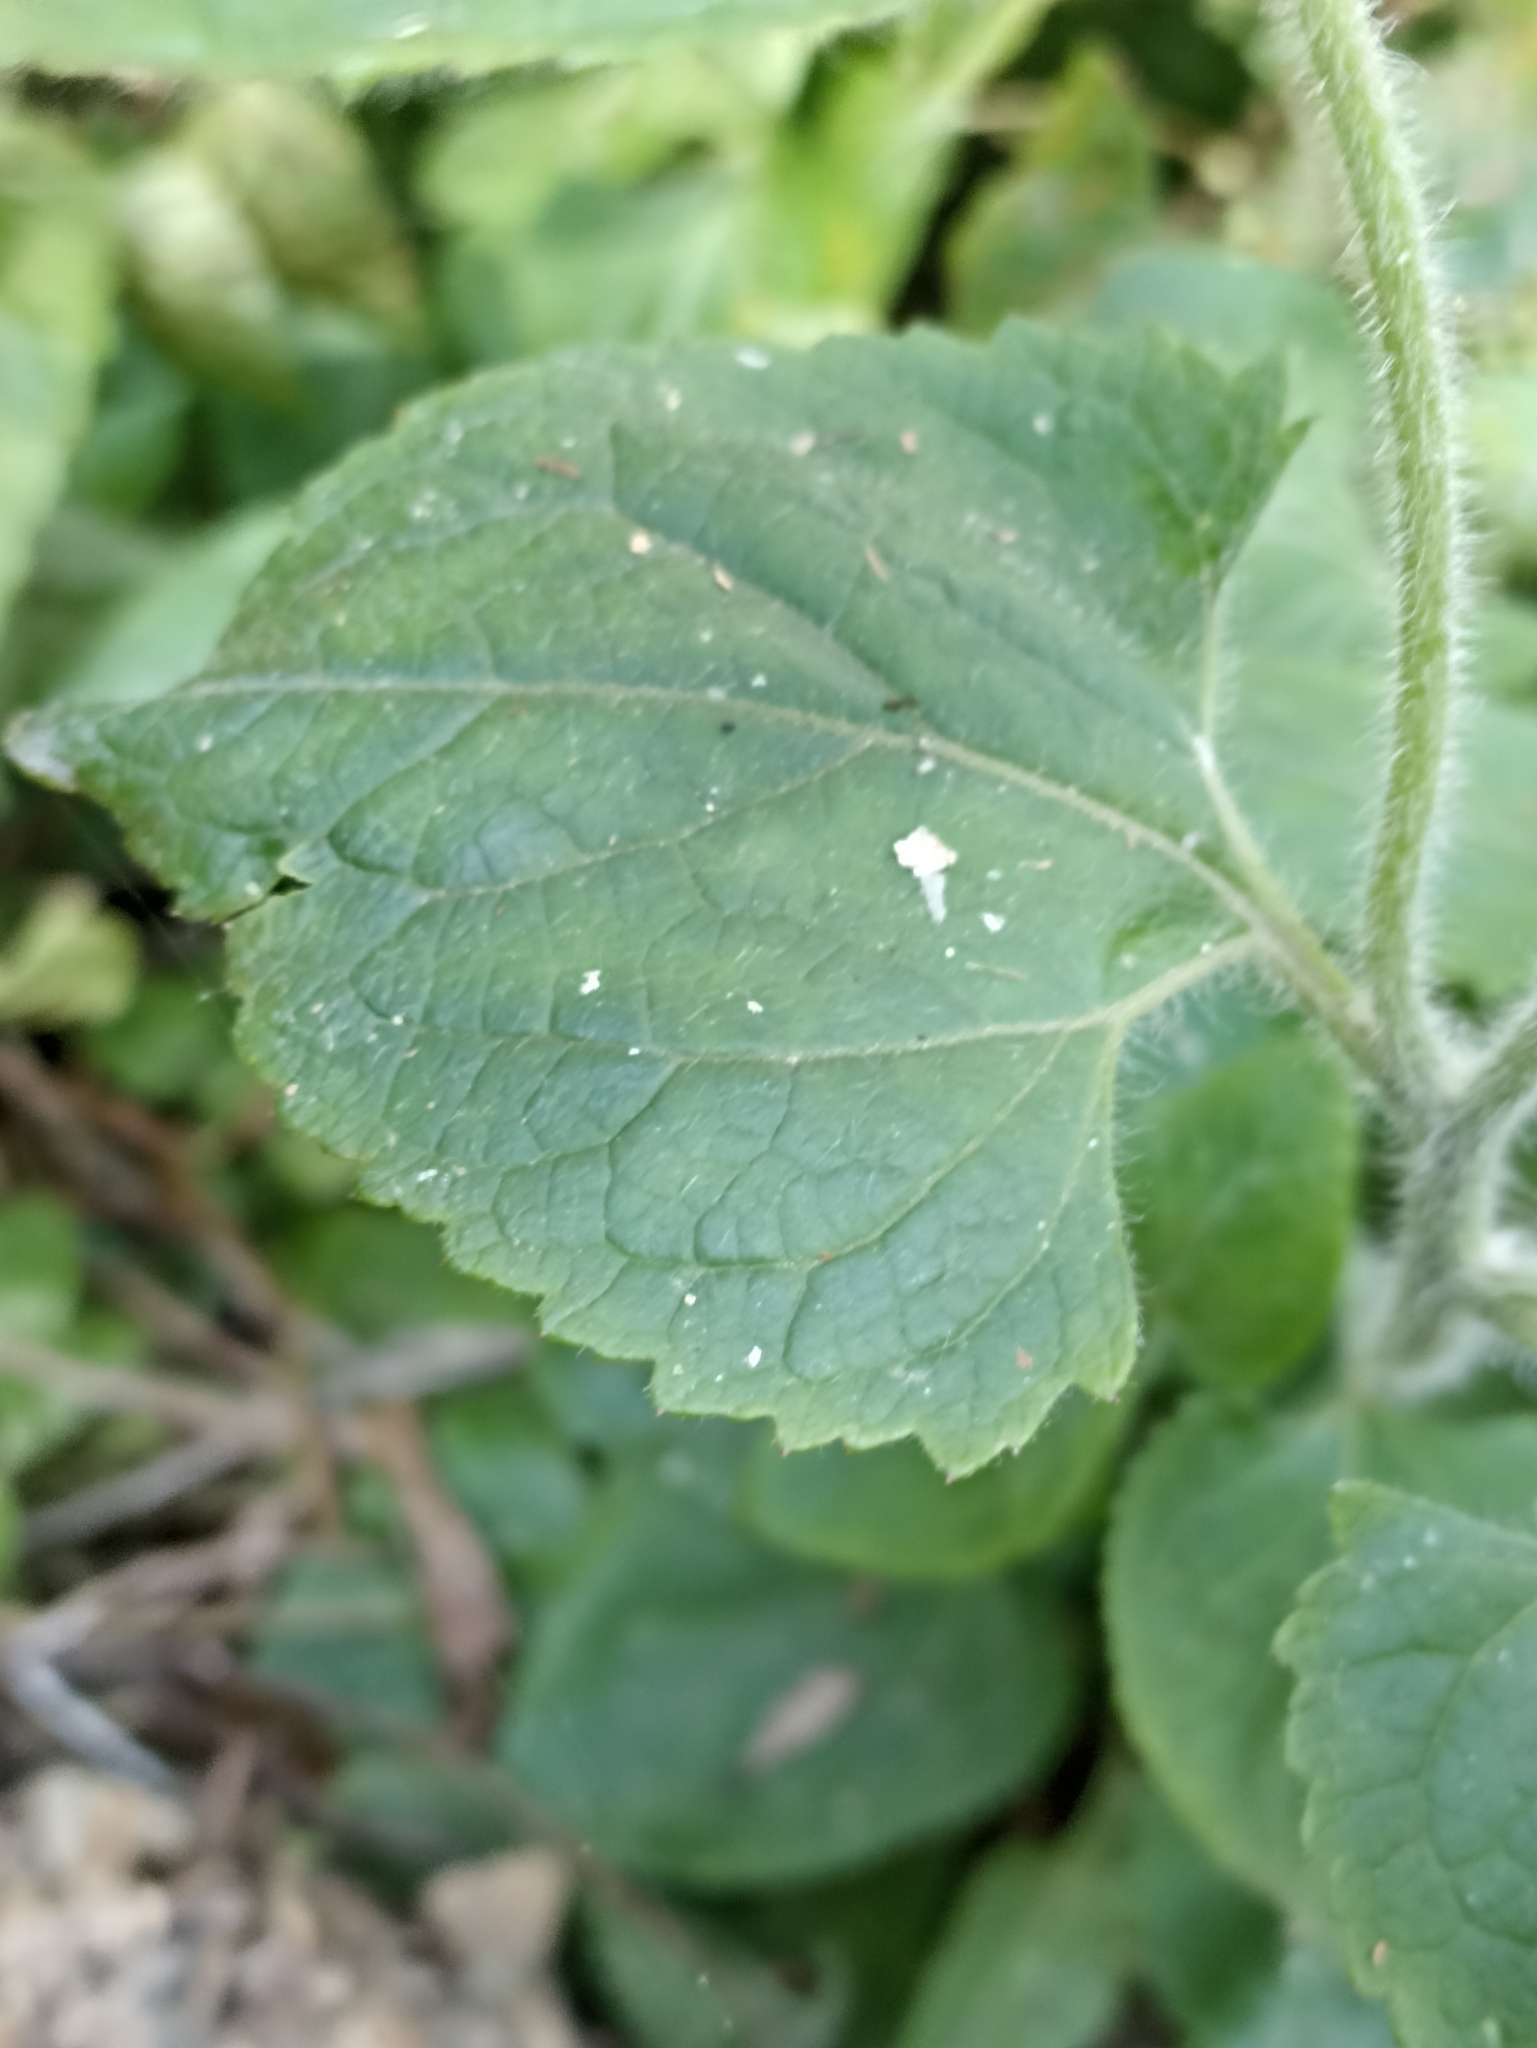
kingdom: Plantae
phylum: Tracheophyta
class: Magnoliopsida
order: Asterales
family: Asteraceae
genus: Ageratum
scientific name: Ageratum houstonianum
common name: Bluemink
